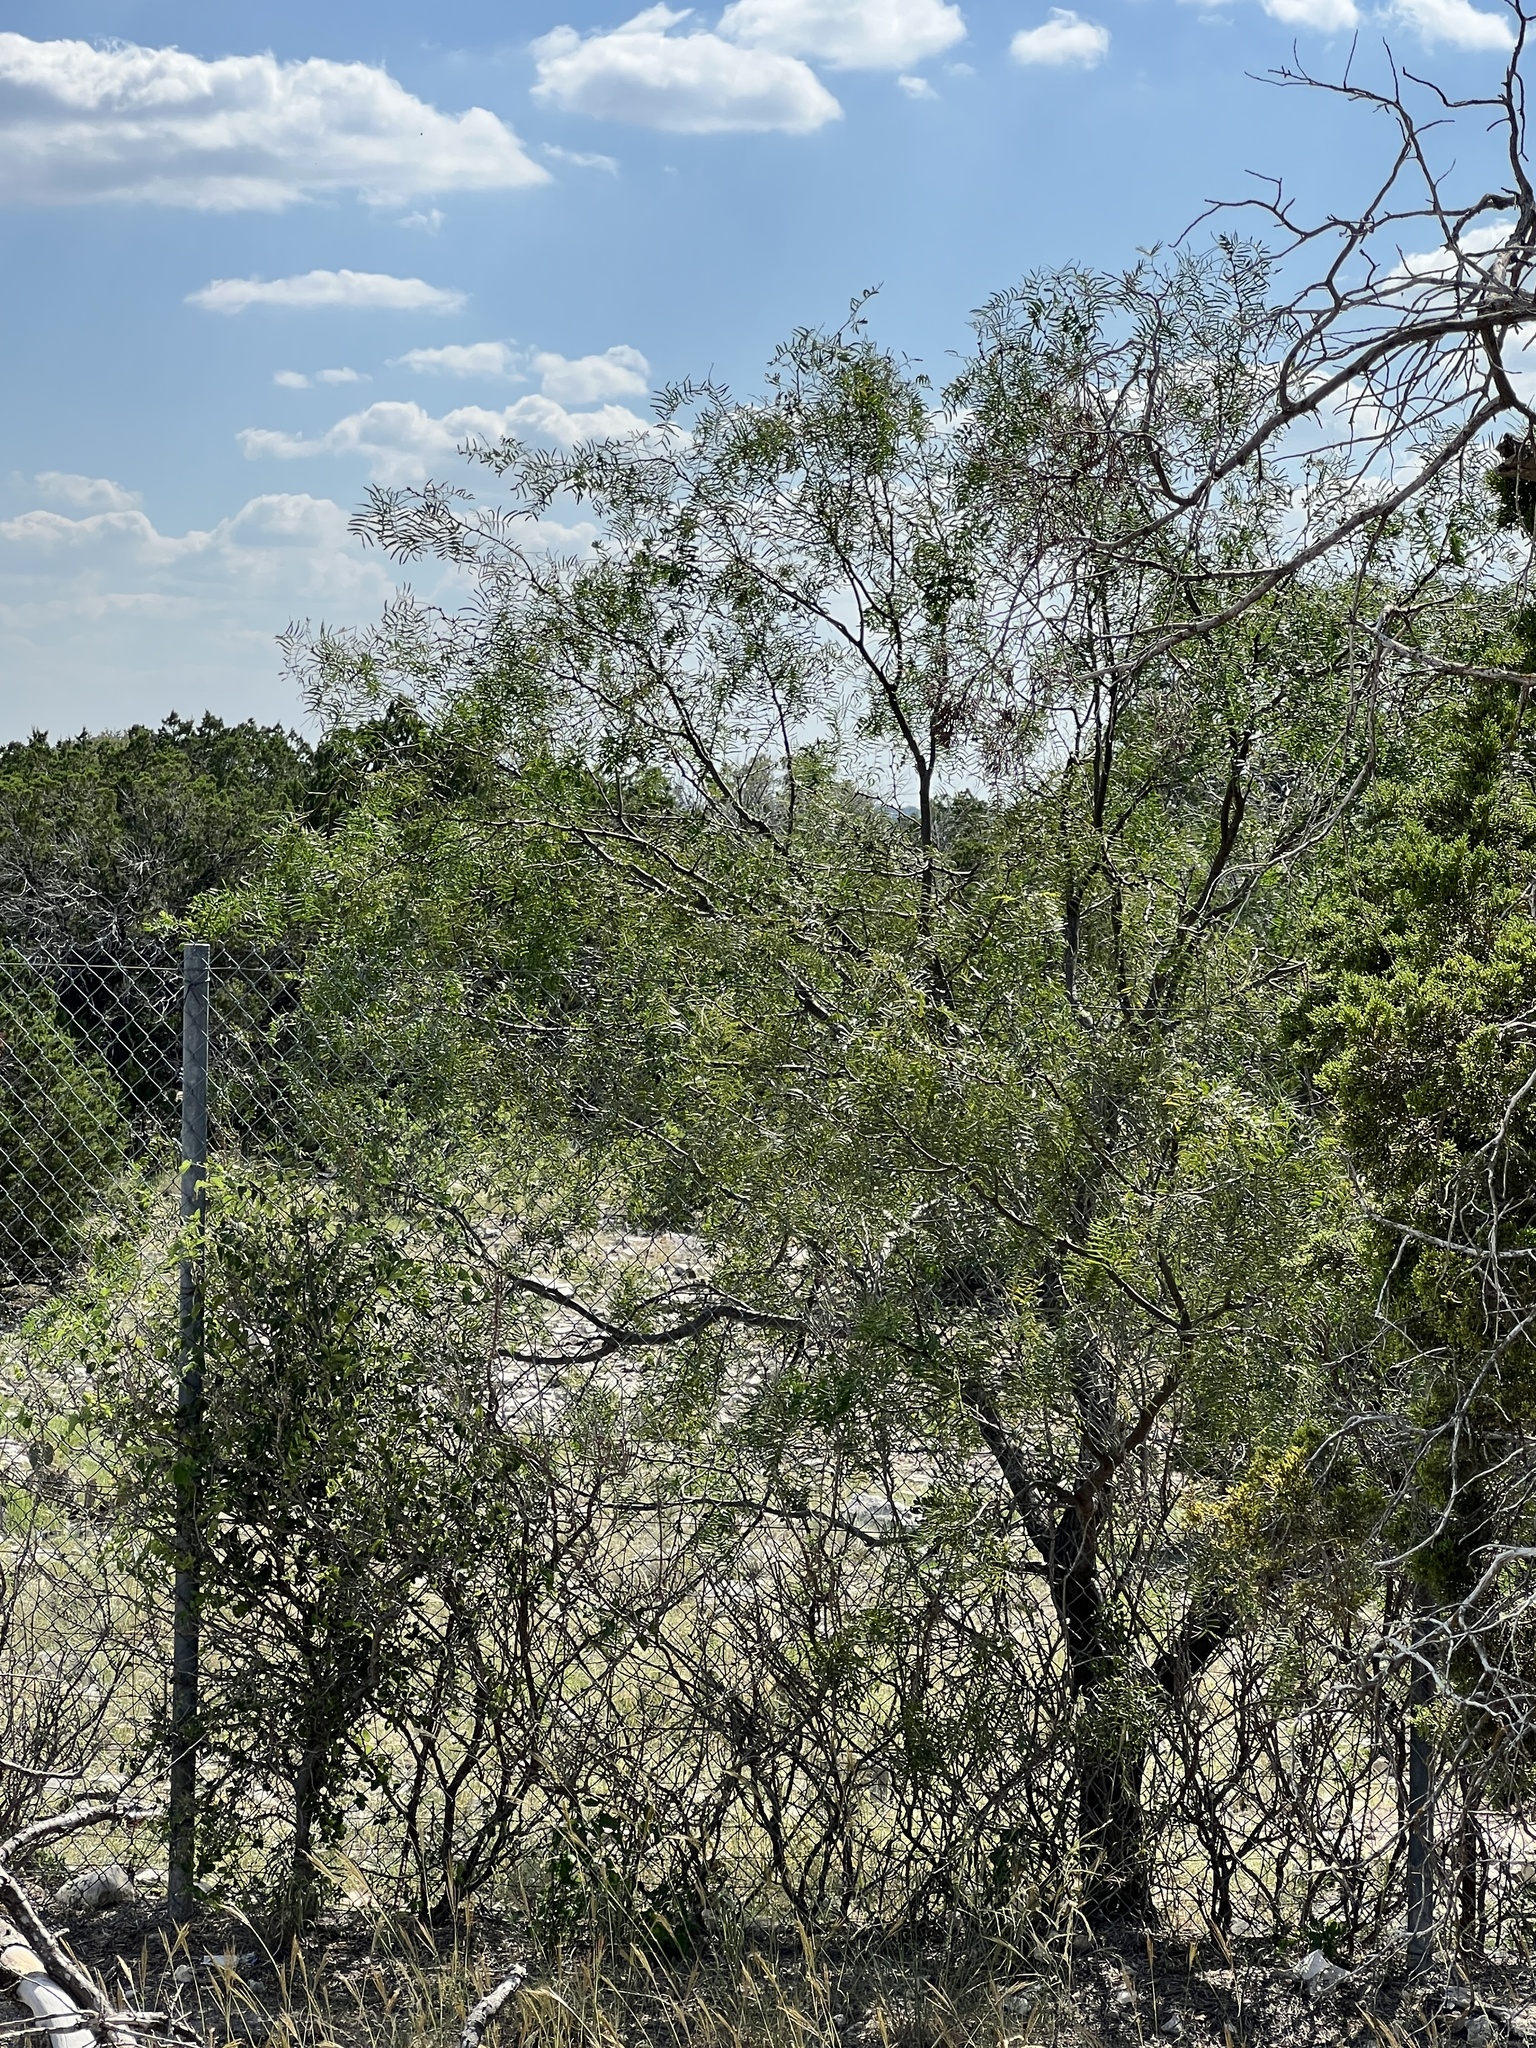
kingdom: Plantae
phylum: Tracheophyta
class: Magnoliopsida
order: Fabales
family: Fabaceae
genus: Prosopis
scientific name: Prosopis glandulosa
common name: Honey mesquite
